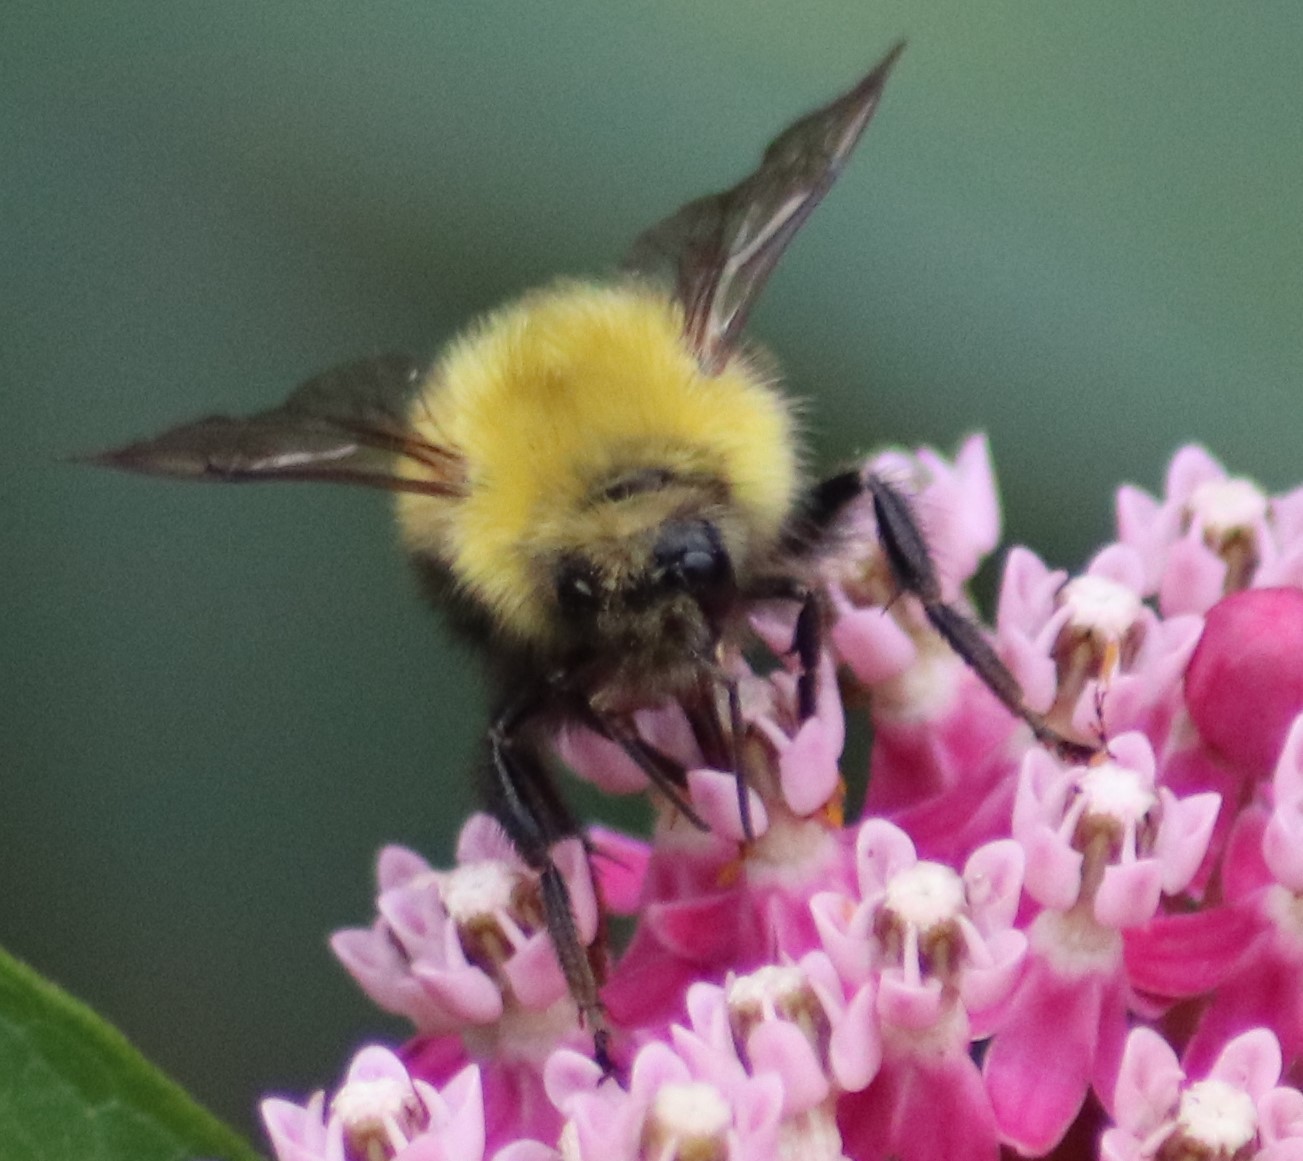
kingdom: Animalia
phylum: Arthropoda
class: Insecta
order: Hymenoptera
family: Apidae
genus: Bombus
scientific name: Bombus perplexus
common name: Confusing bumble bee
